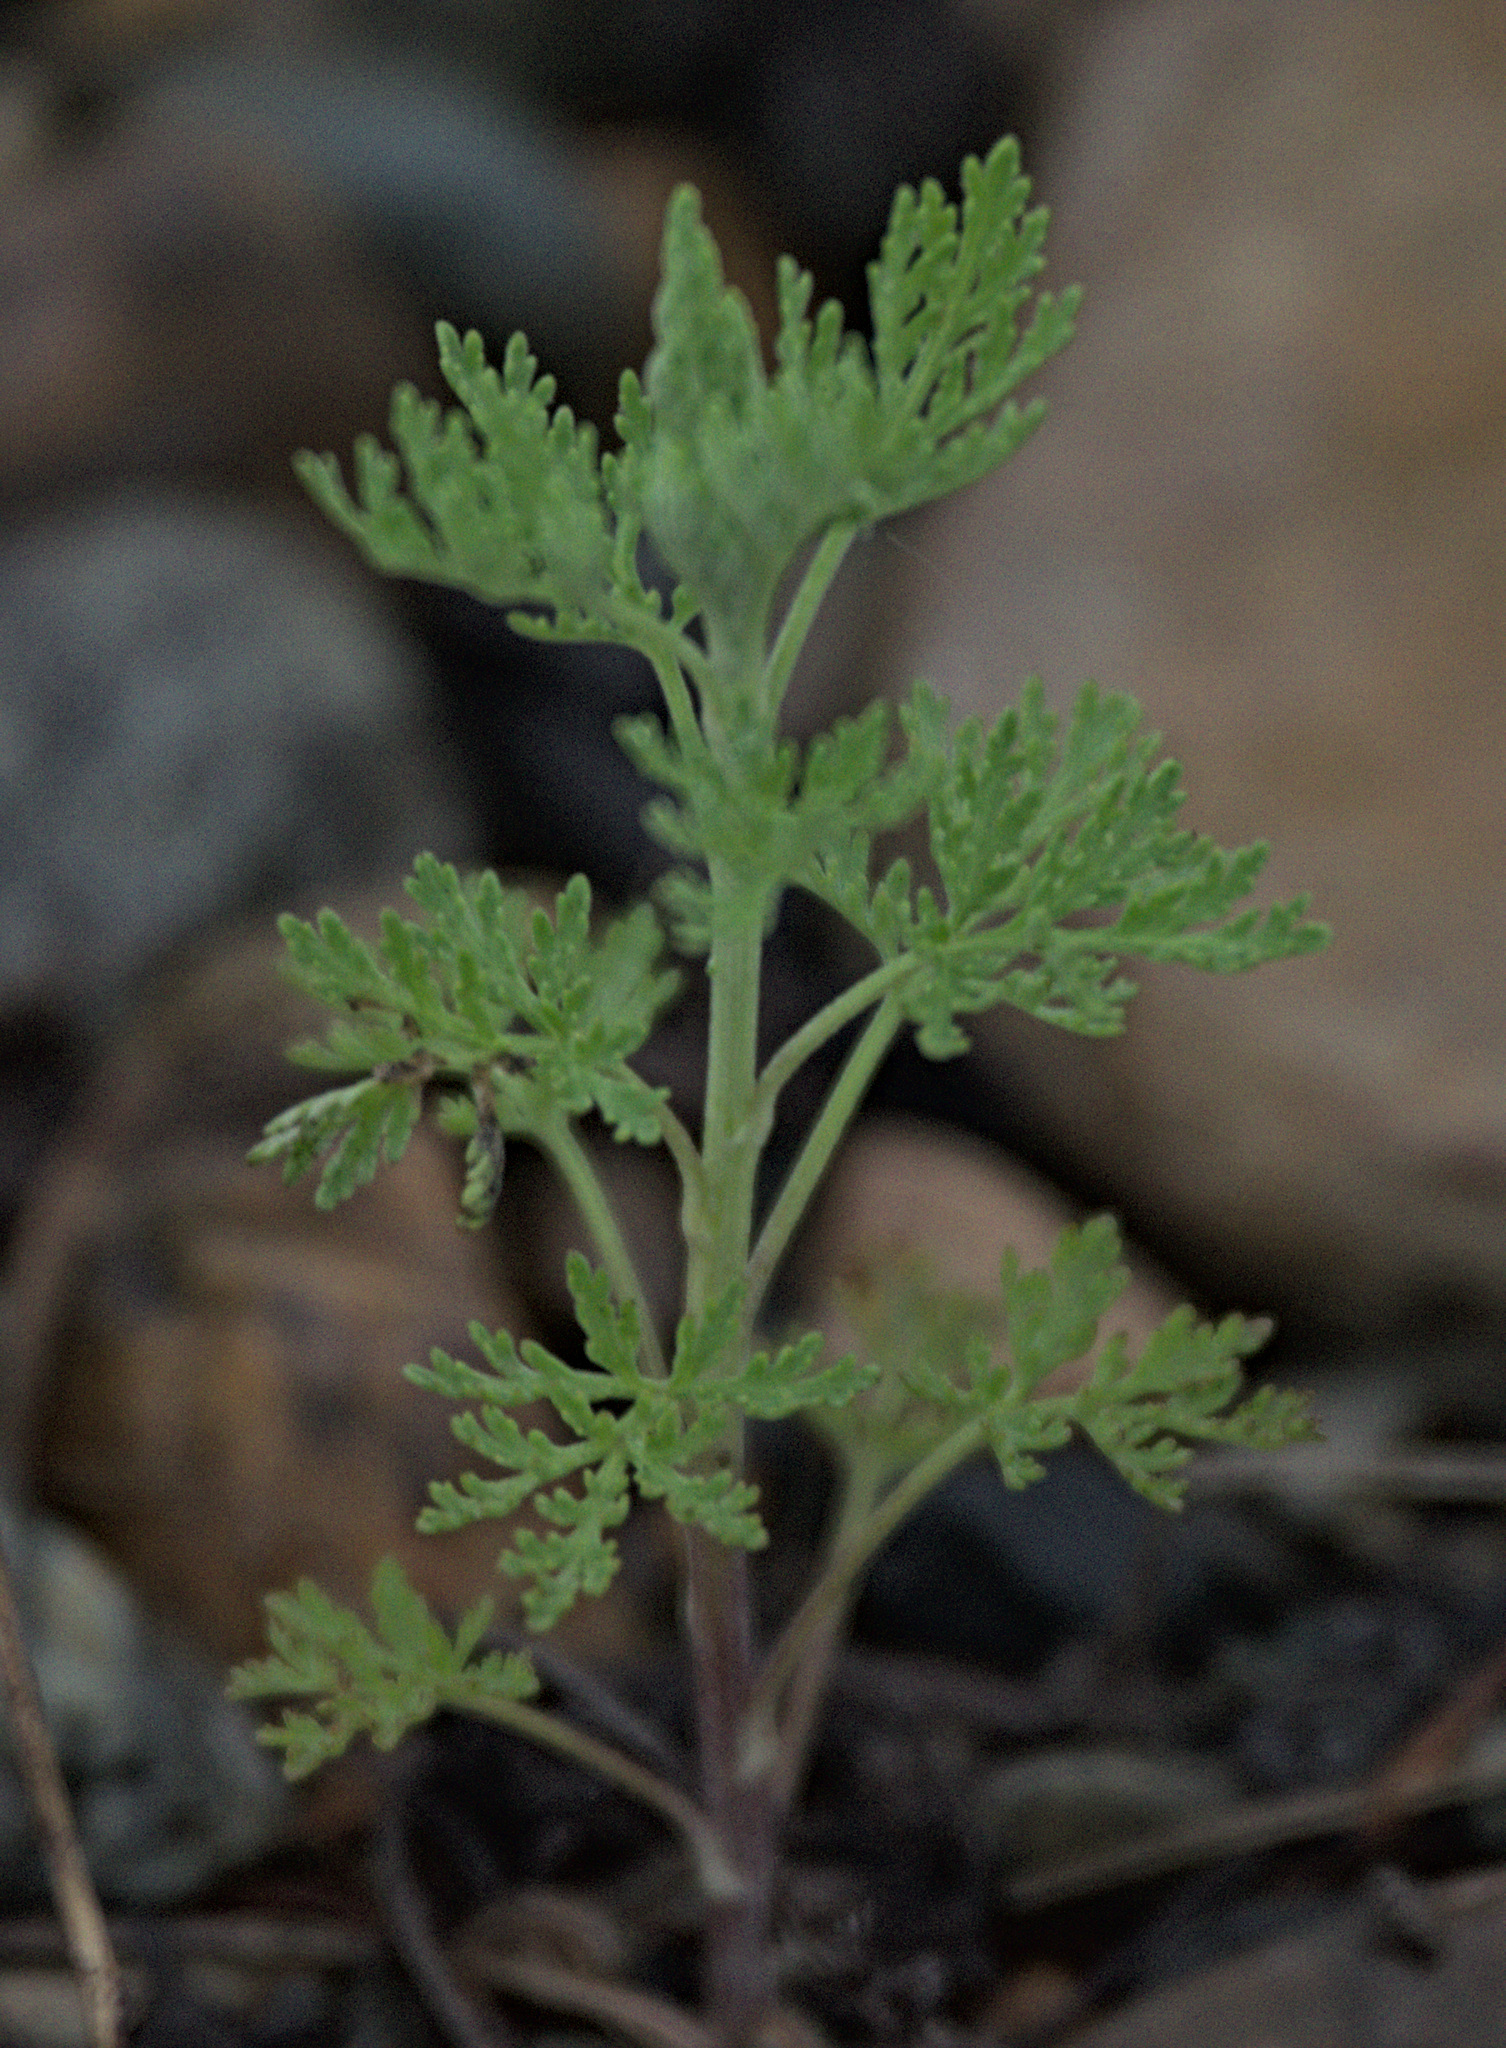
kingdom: Plantae
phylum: Tracheophyta
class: Magnoliopsida
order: Asterales
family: Asteraceae
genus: Artemisia
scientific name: Artemisia sieversiana
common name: Sieversian wormwood
